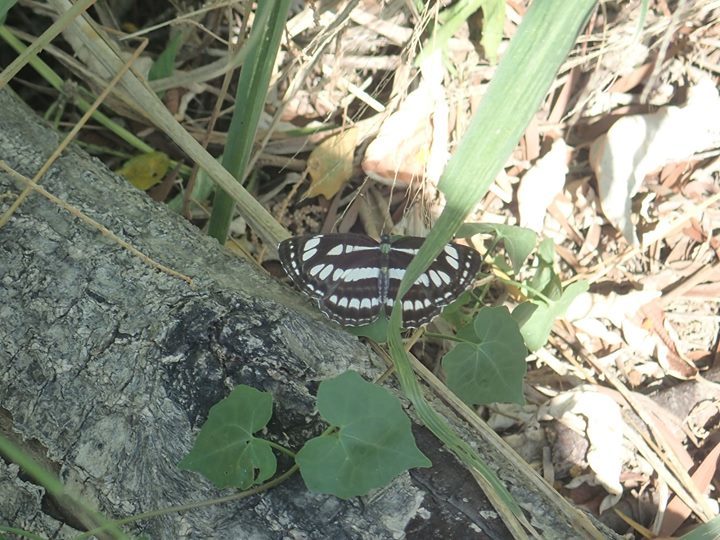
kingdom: Animalia
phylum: Arthropoda
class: Insecta
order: Lepidoptera
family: Nymphalidae
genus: Neptis
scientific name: Neptis hylas
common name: Common sailer
